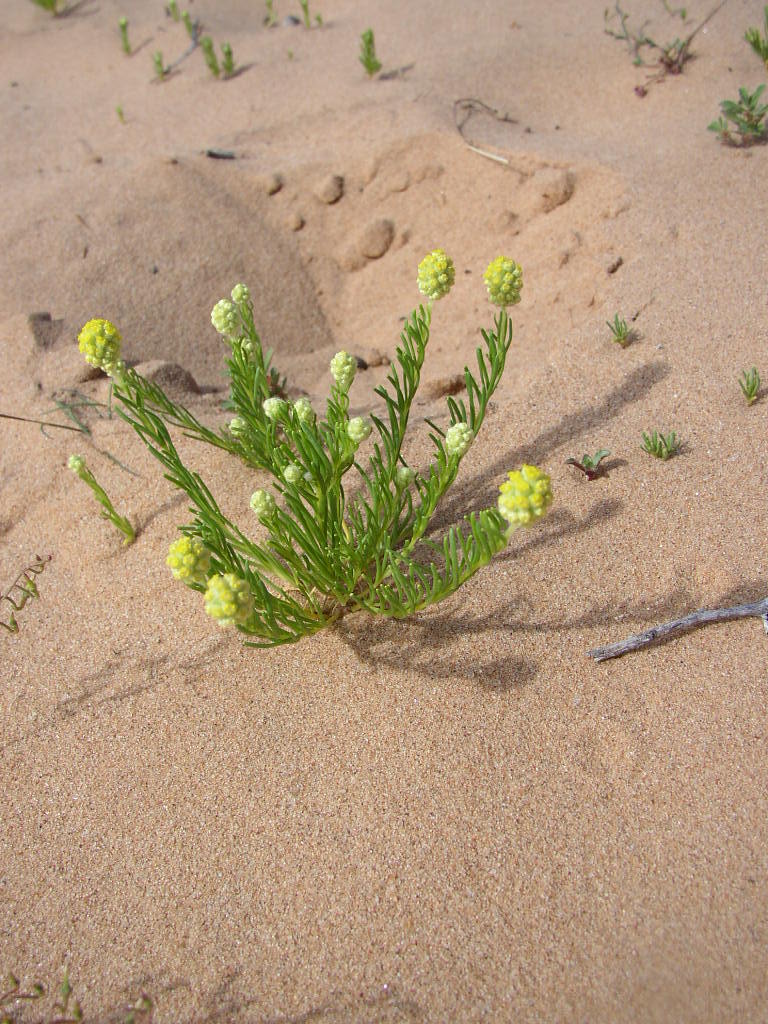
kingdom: Plantae
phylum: Tracheophyta
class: Magnoliopsida
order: Asterales
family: Asteraceae
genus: Calocephalus
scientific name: Calocephalus francisii
